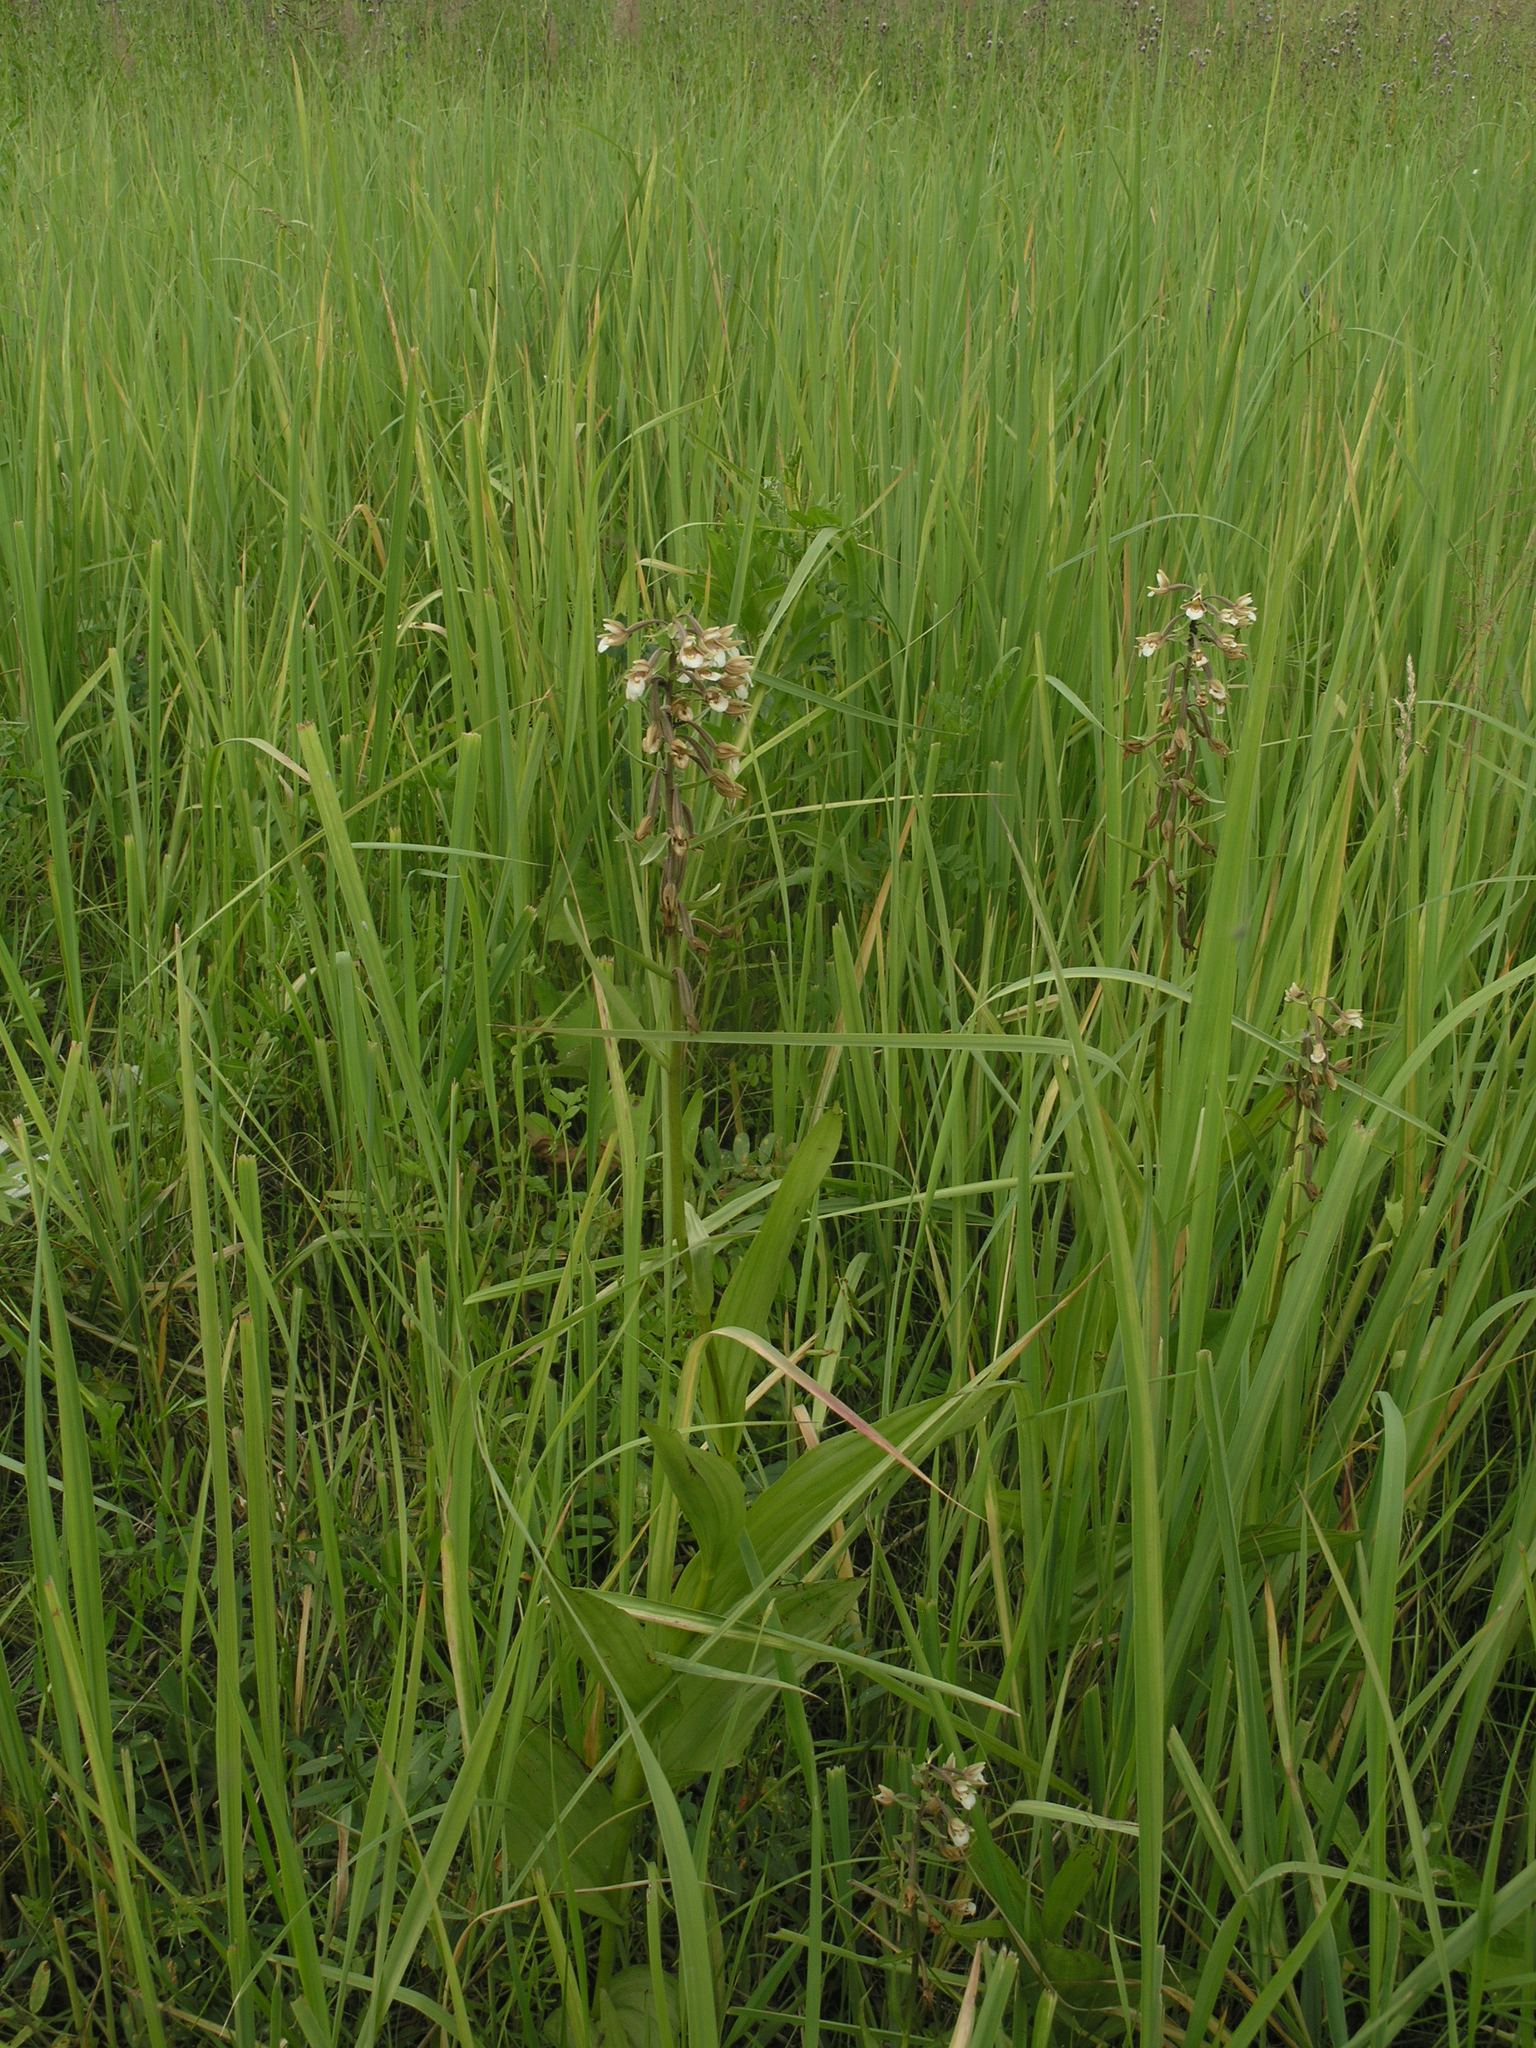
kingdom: Plantae
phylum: Tracheophyta
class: Liliopsida
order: Asparagales
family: Orchidaceae
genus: Epipactis
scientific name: Epipactis palustris
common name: Marsh helleborine
